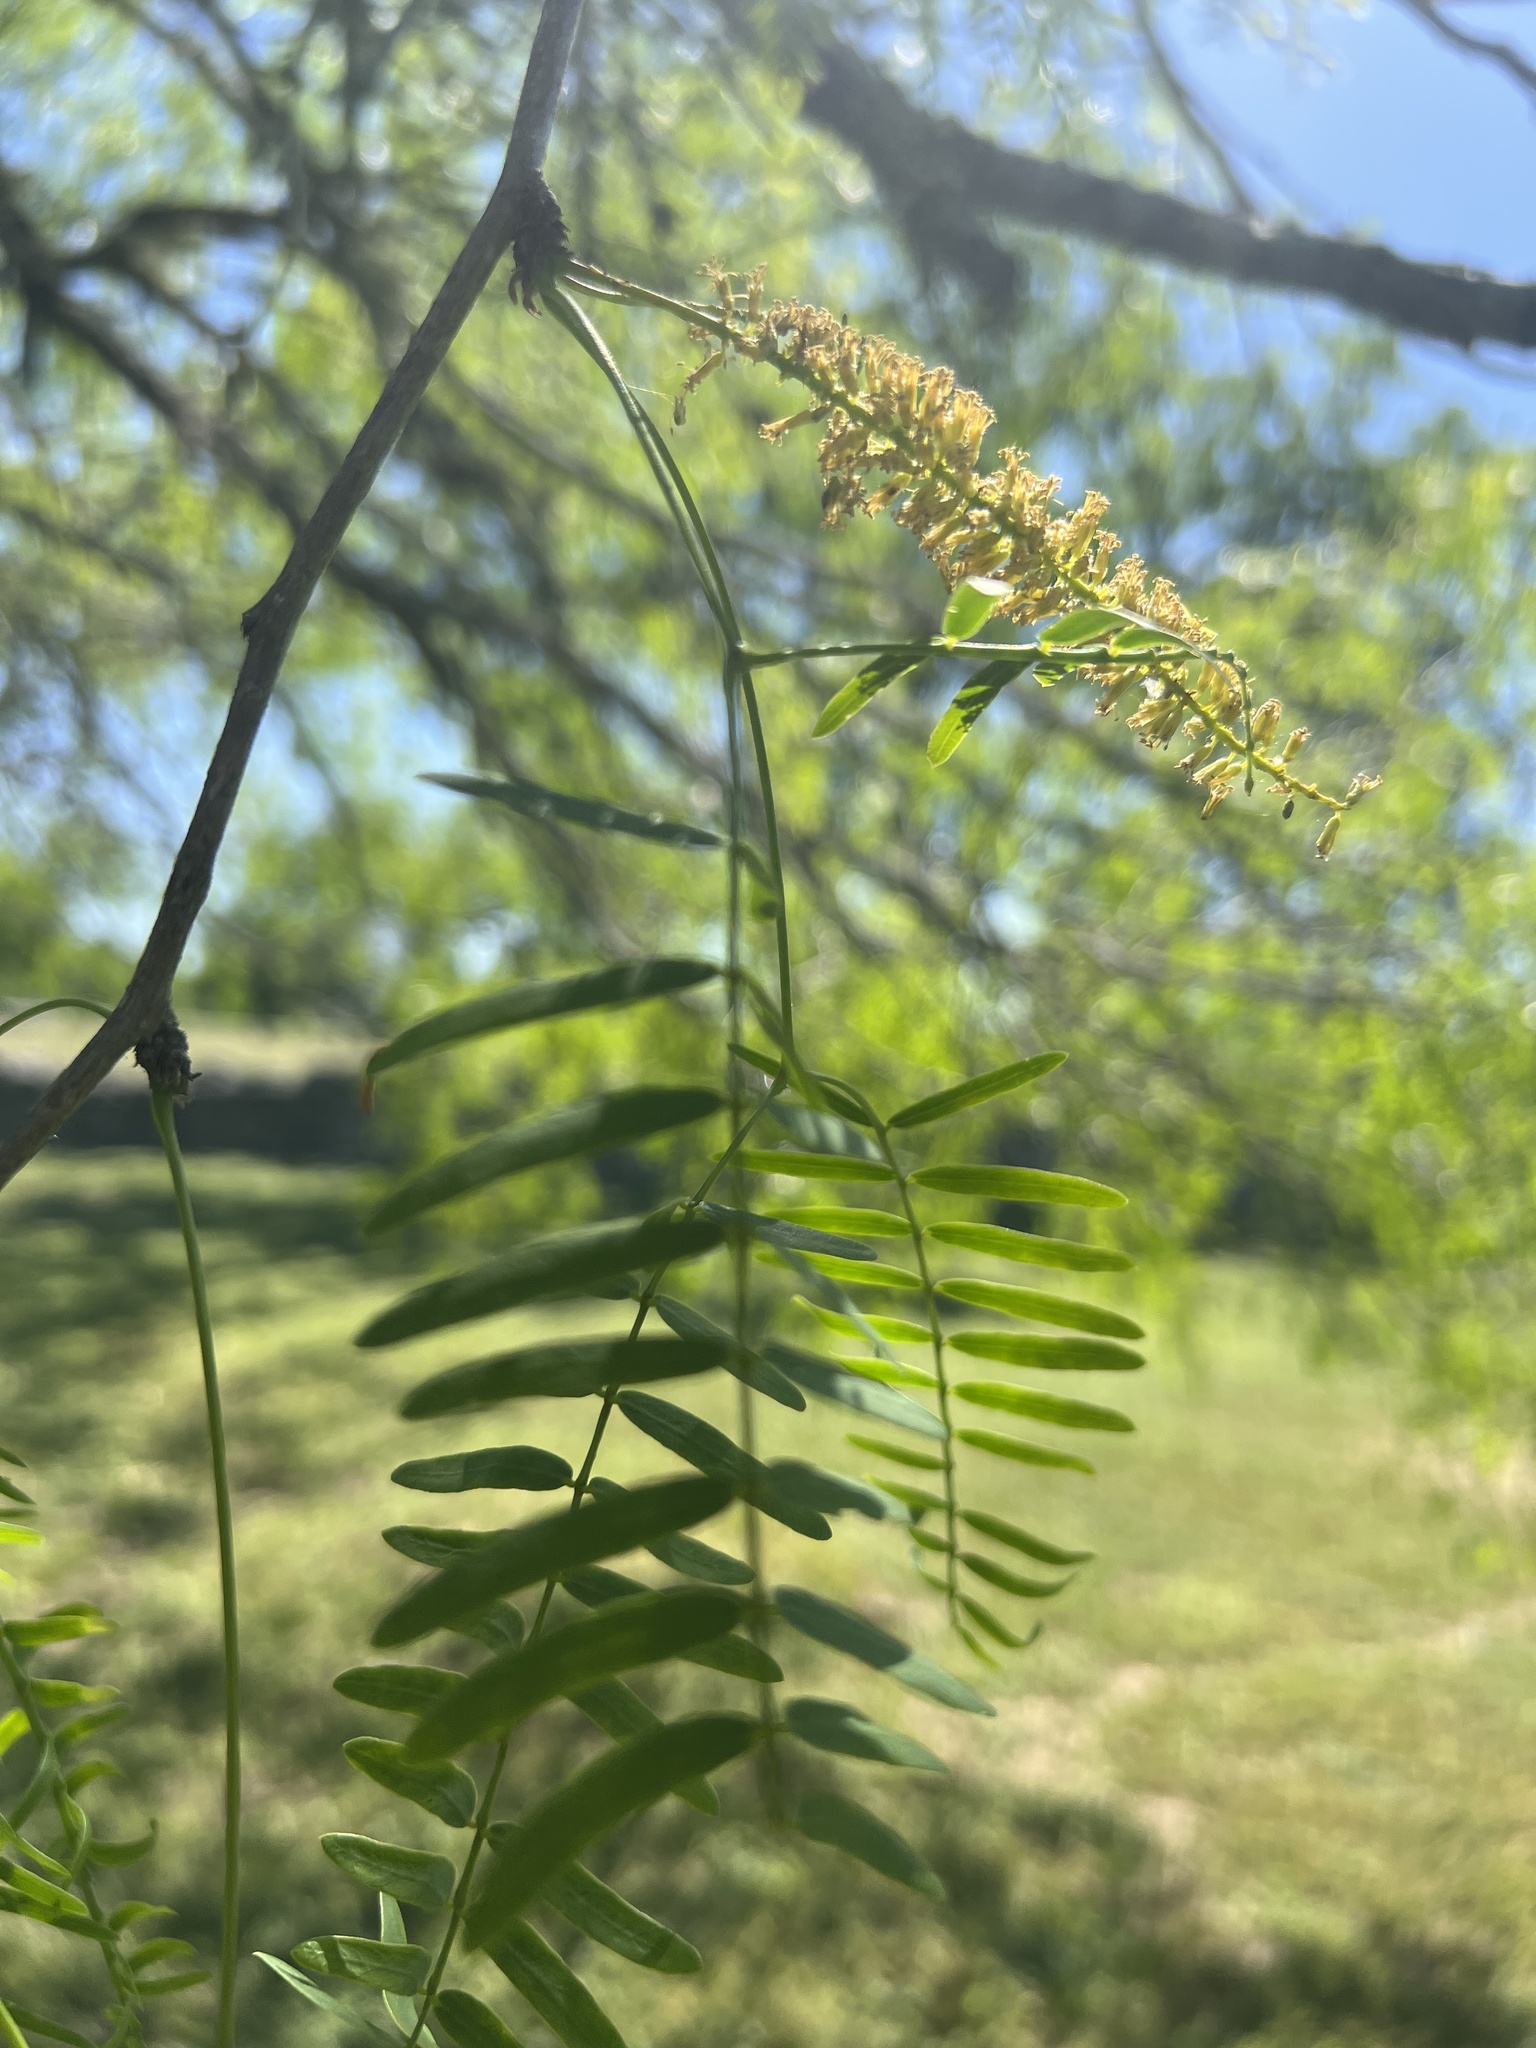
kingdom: Plantae
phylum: Tracheophyta
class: Magnoliopsida
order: Fabales
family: Fabaceae
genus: Prosopis
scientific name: Prosopis glandulosa
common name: Honey mesquite
